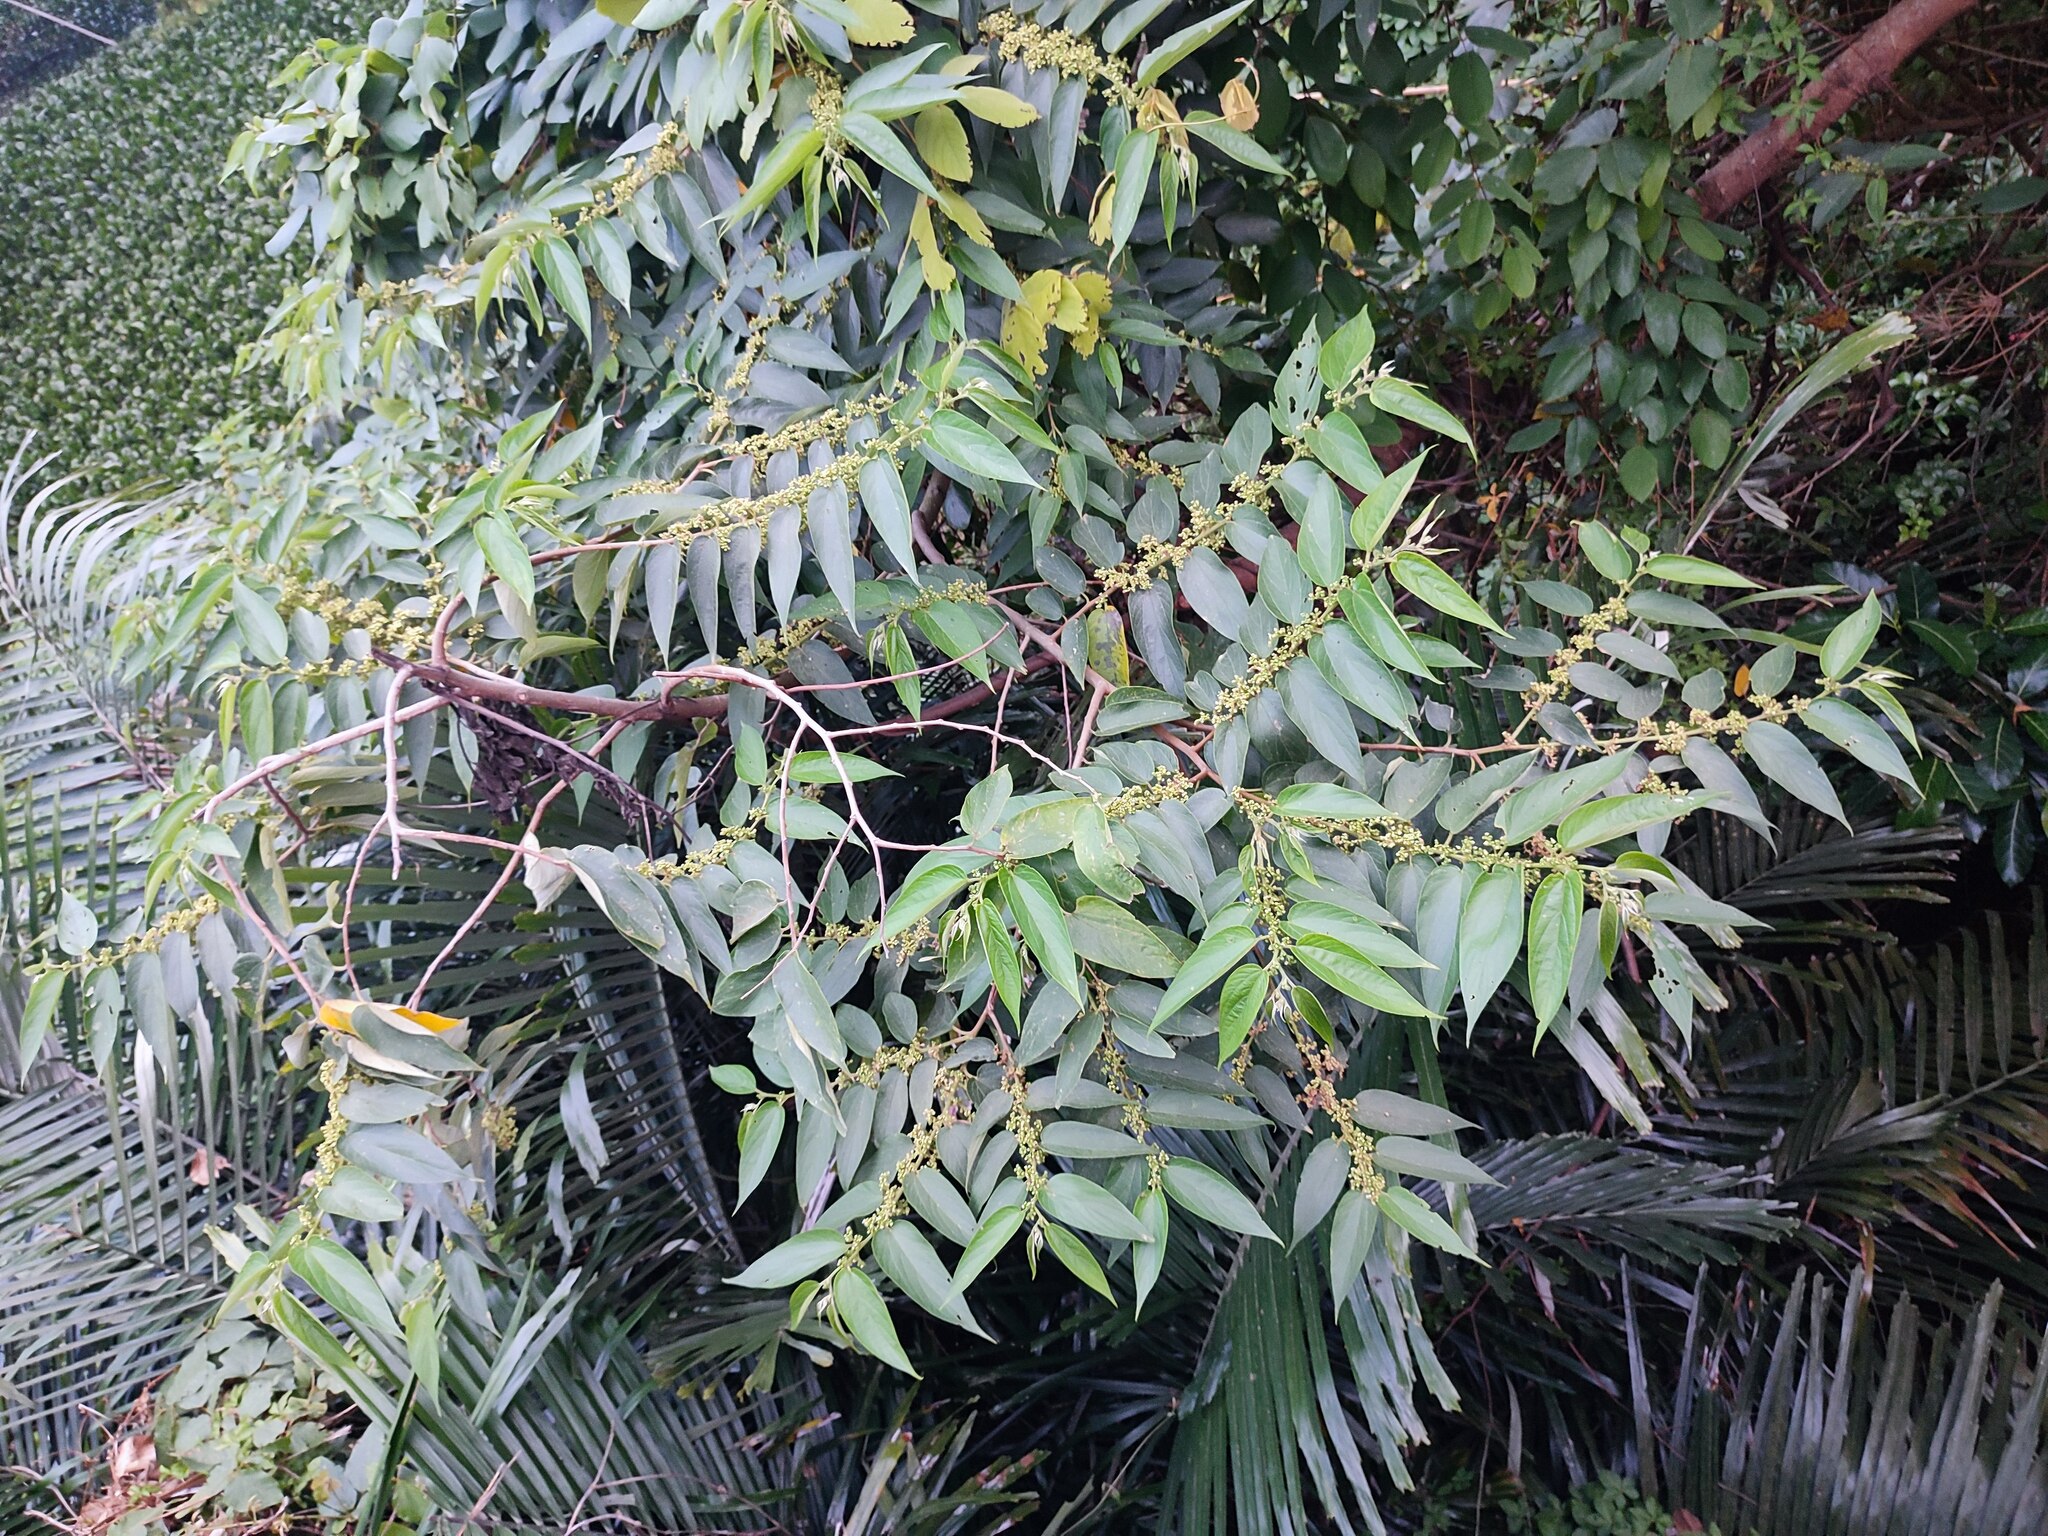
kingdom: Plantae
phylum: Tracheophyta
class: Magnoliopsida
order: Rosales
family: Cannabaceae
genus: Trema
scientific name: Trema orientale
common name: Indian charcoal tree
